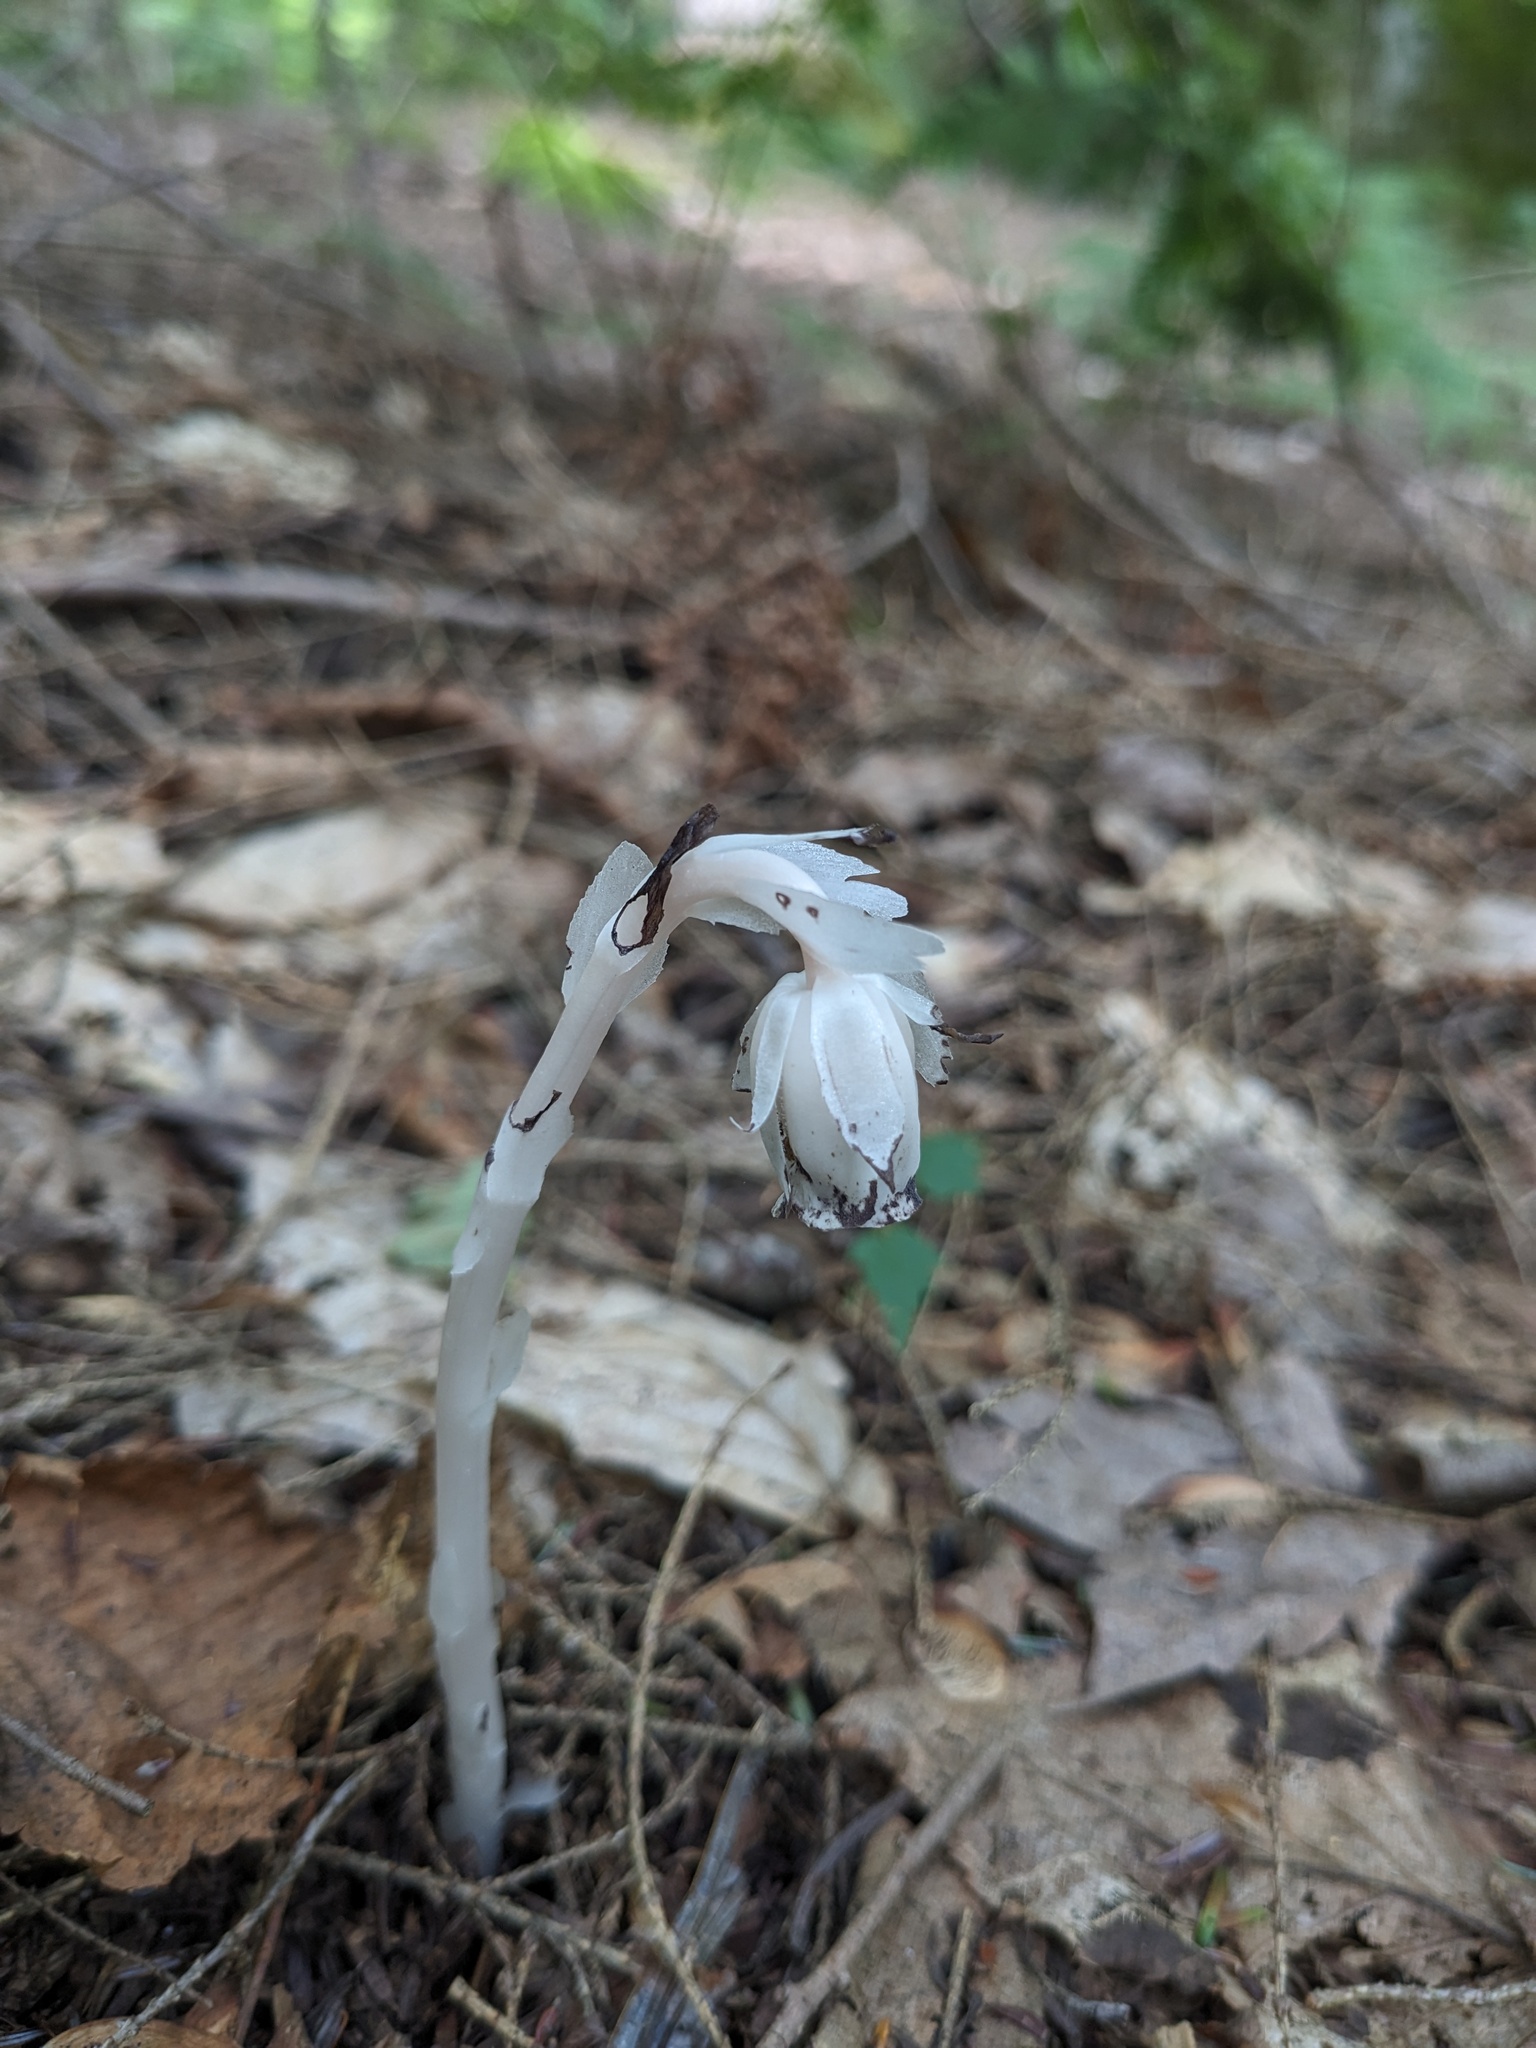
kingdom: Plantae
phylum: Tracheophyta
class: Magnoliopsida
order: Ericales
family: Ericaceae
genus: Monotropa
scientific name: Monotropa uniflora
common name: Convulsion root
